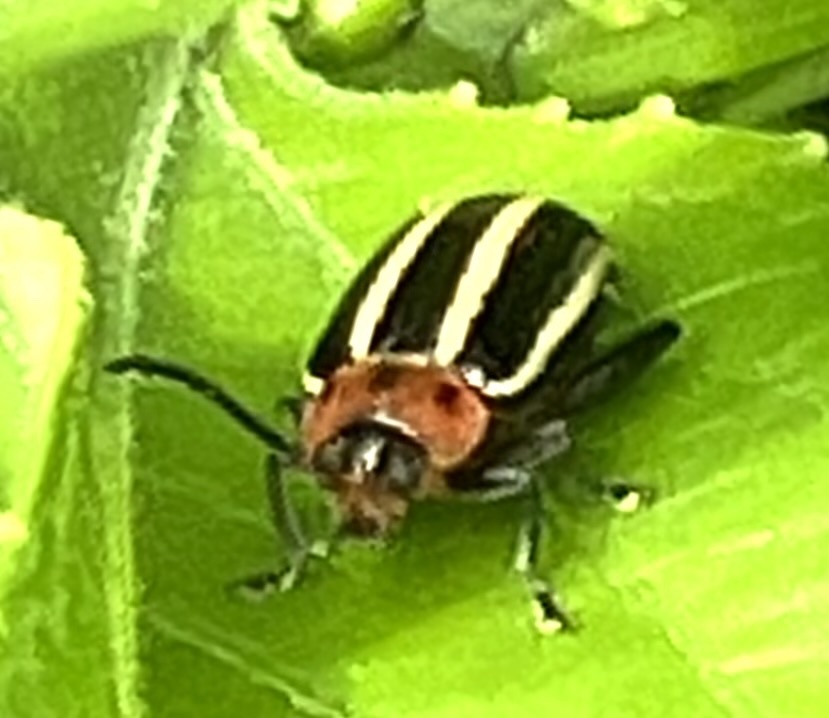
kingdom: Animalia
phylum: Arthropoda
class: Insecta
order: Coleoptera
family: Chrysomelidae
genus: Disonycha
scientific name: Disonycha glabrata
